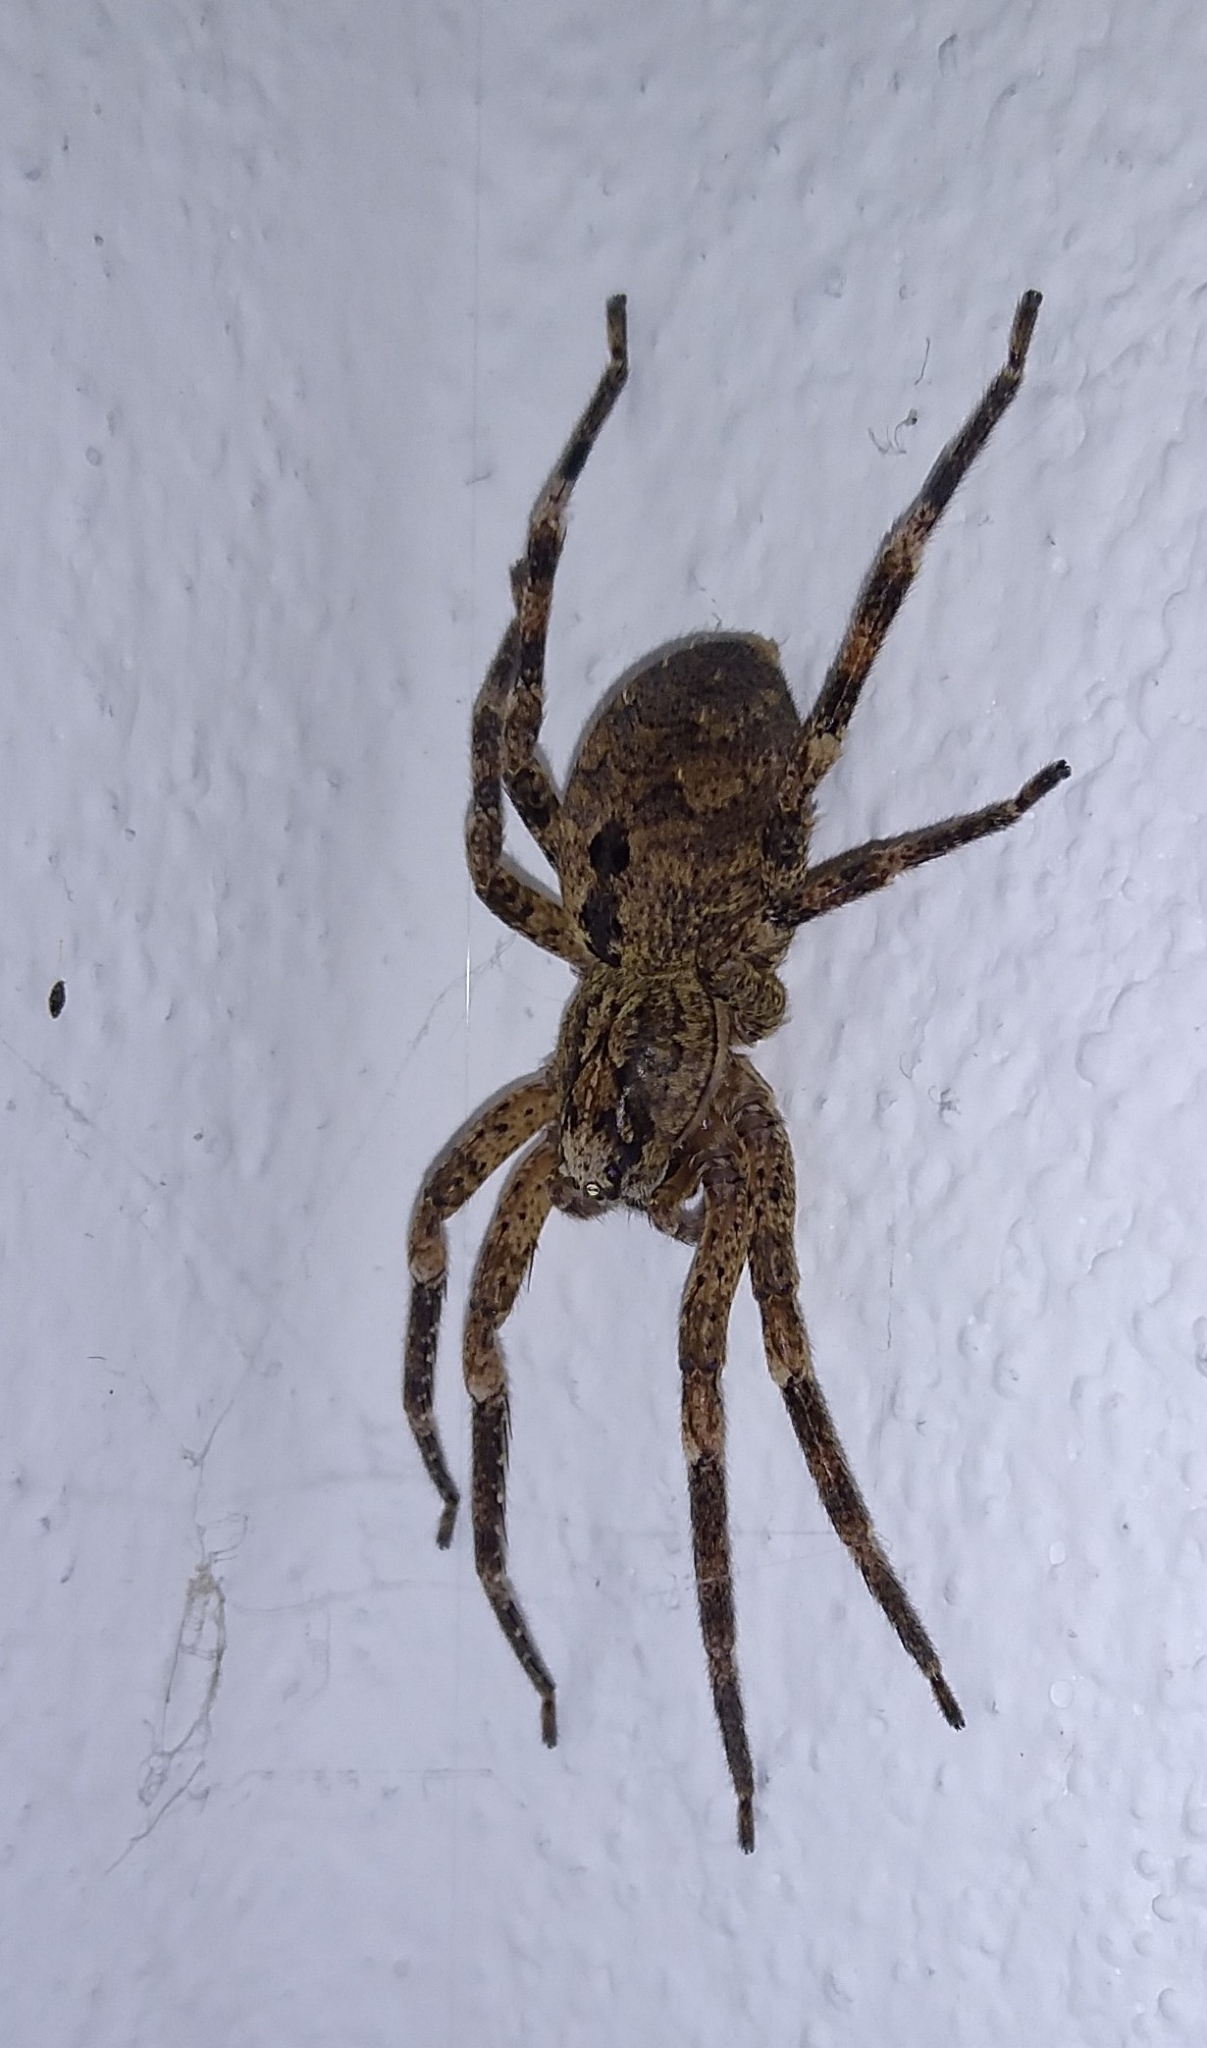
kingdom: Animalia
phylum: Arthropoda
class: Arachnida
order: Araneae
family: Zoropsidae
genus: Zoropsis
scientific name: Zoropsis spinimana
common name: Zoropsid spider
